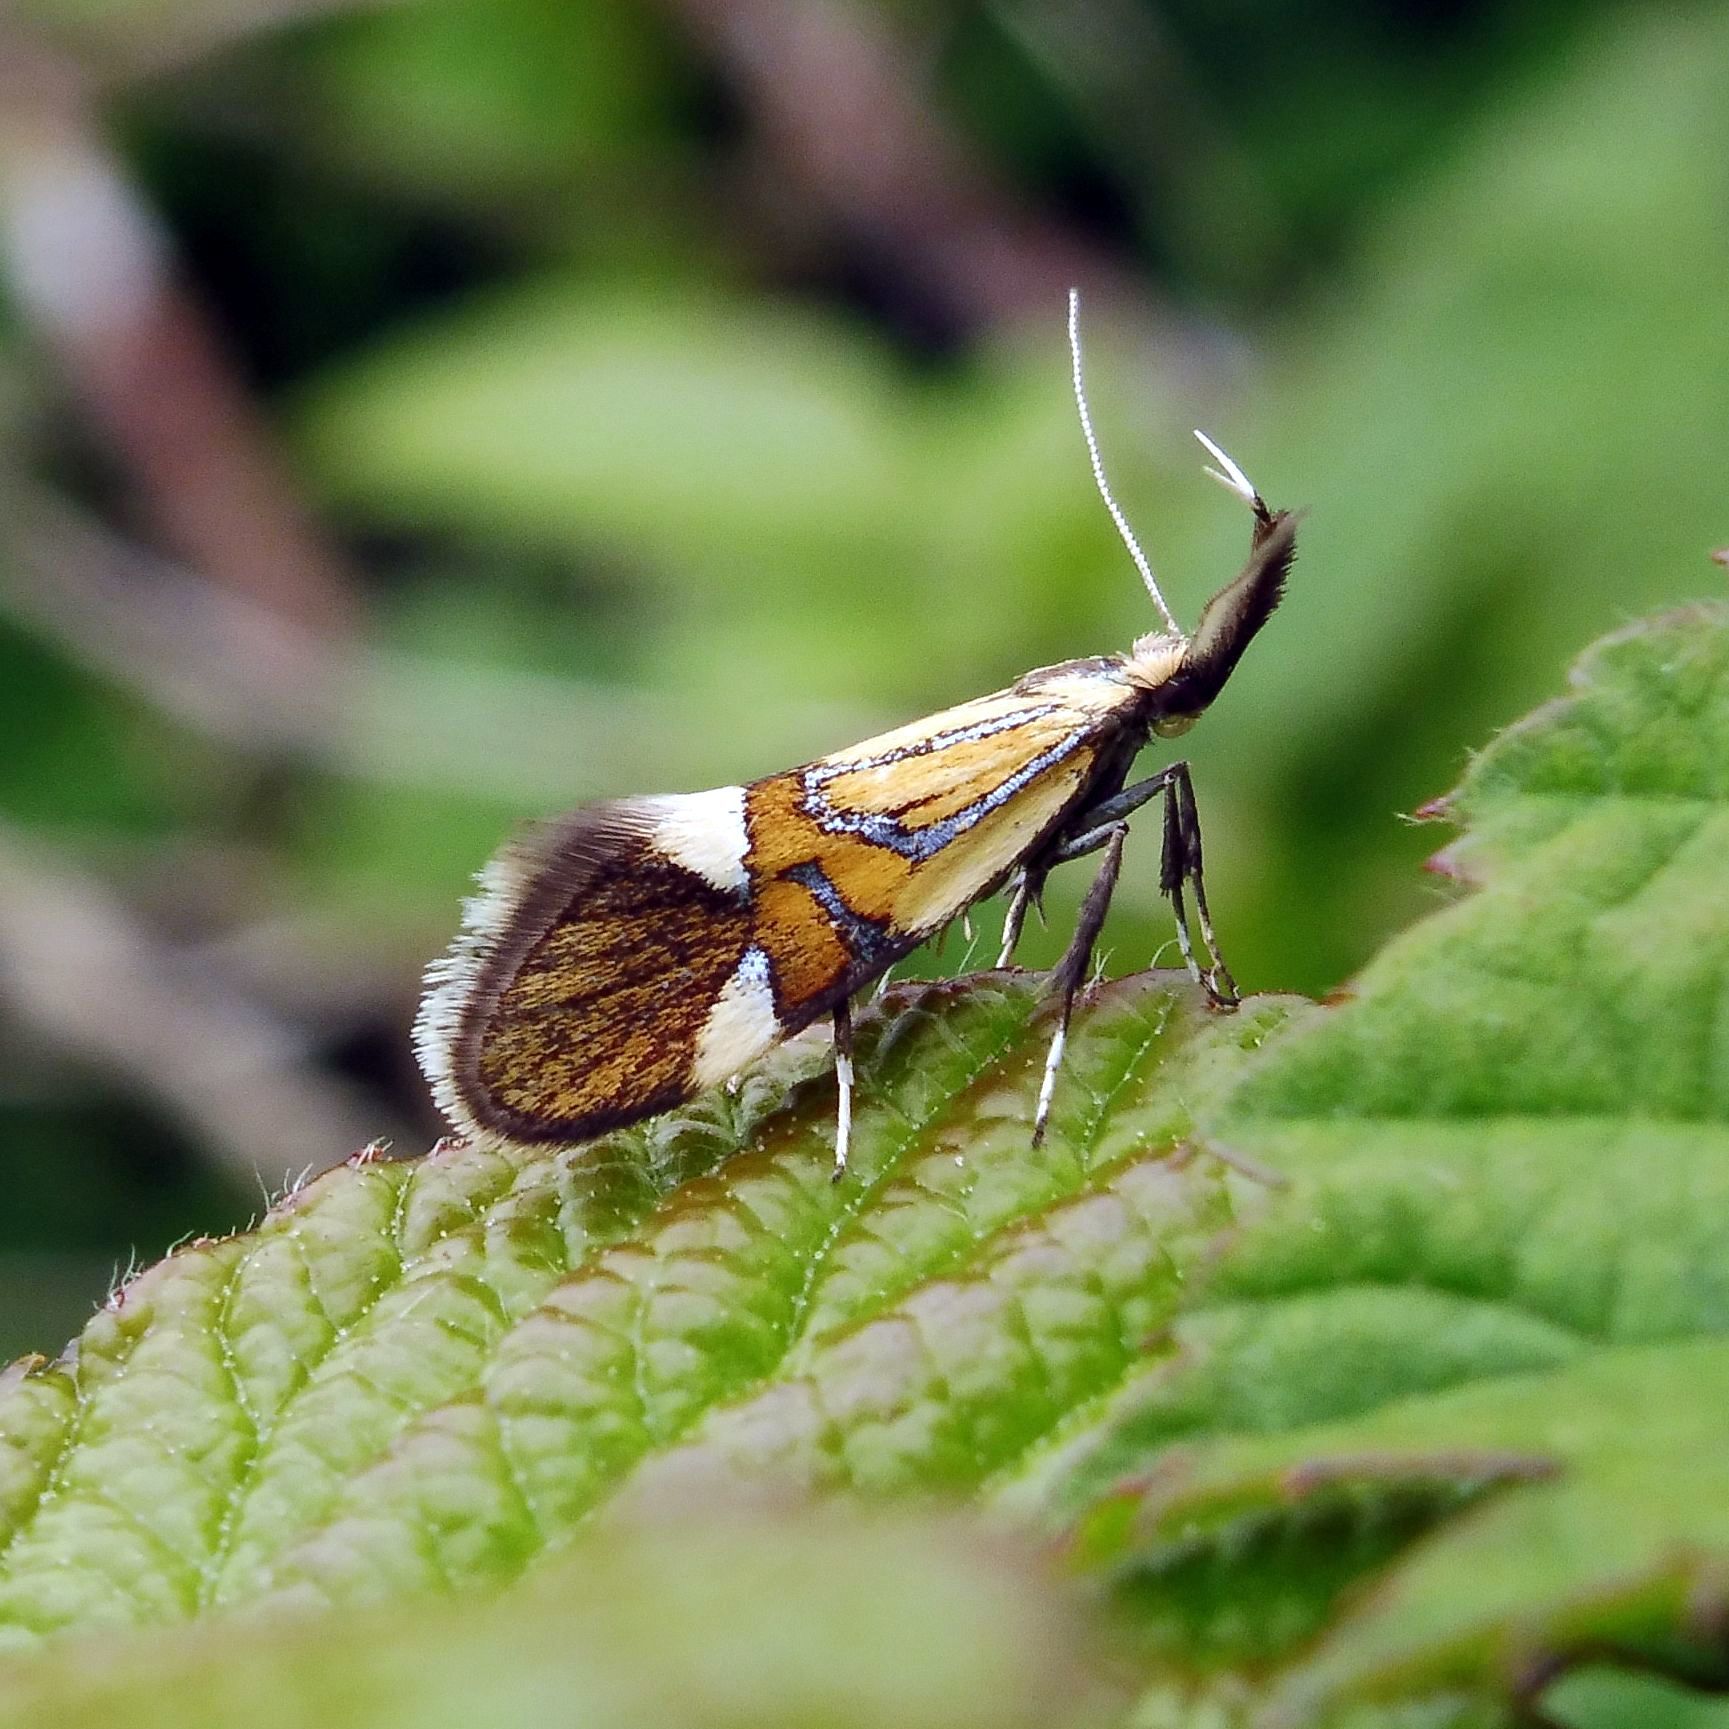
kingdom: Animalia
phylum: Arthropoda
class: Insecta
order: Lepidoptera
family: Oecophoridae
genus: Oecophora
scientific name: Oecophora Alabonia geoffrella
